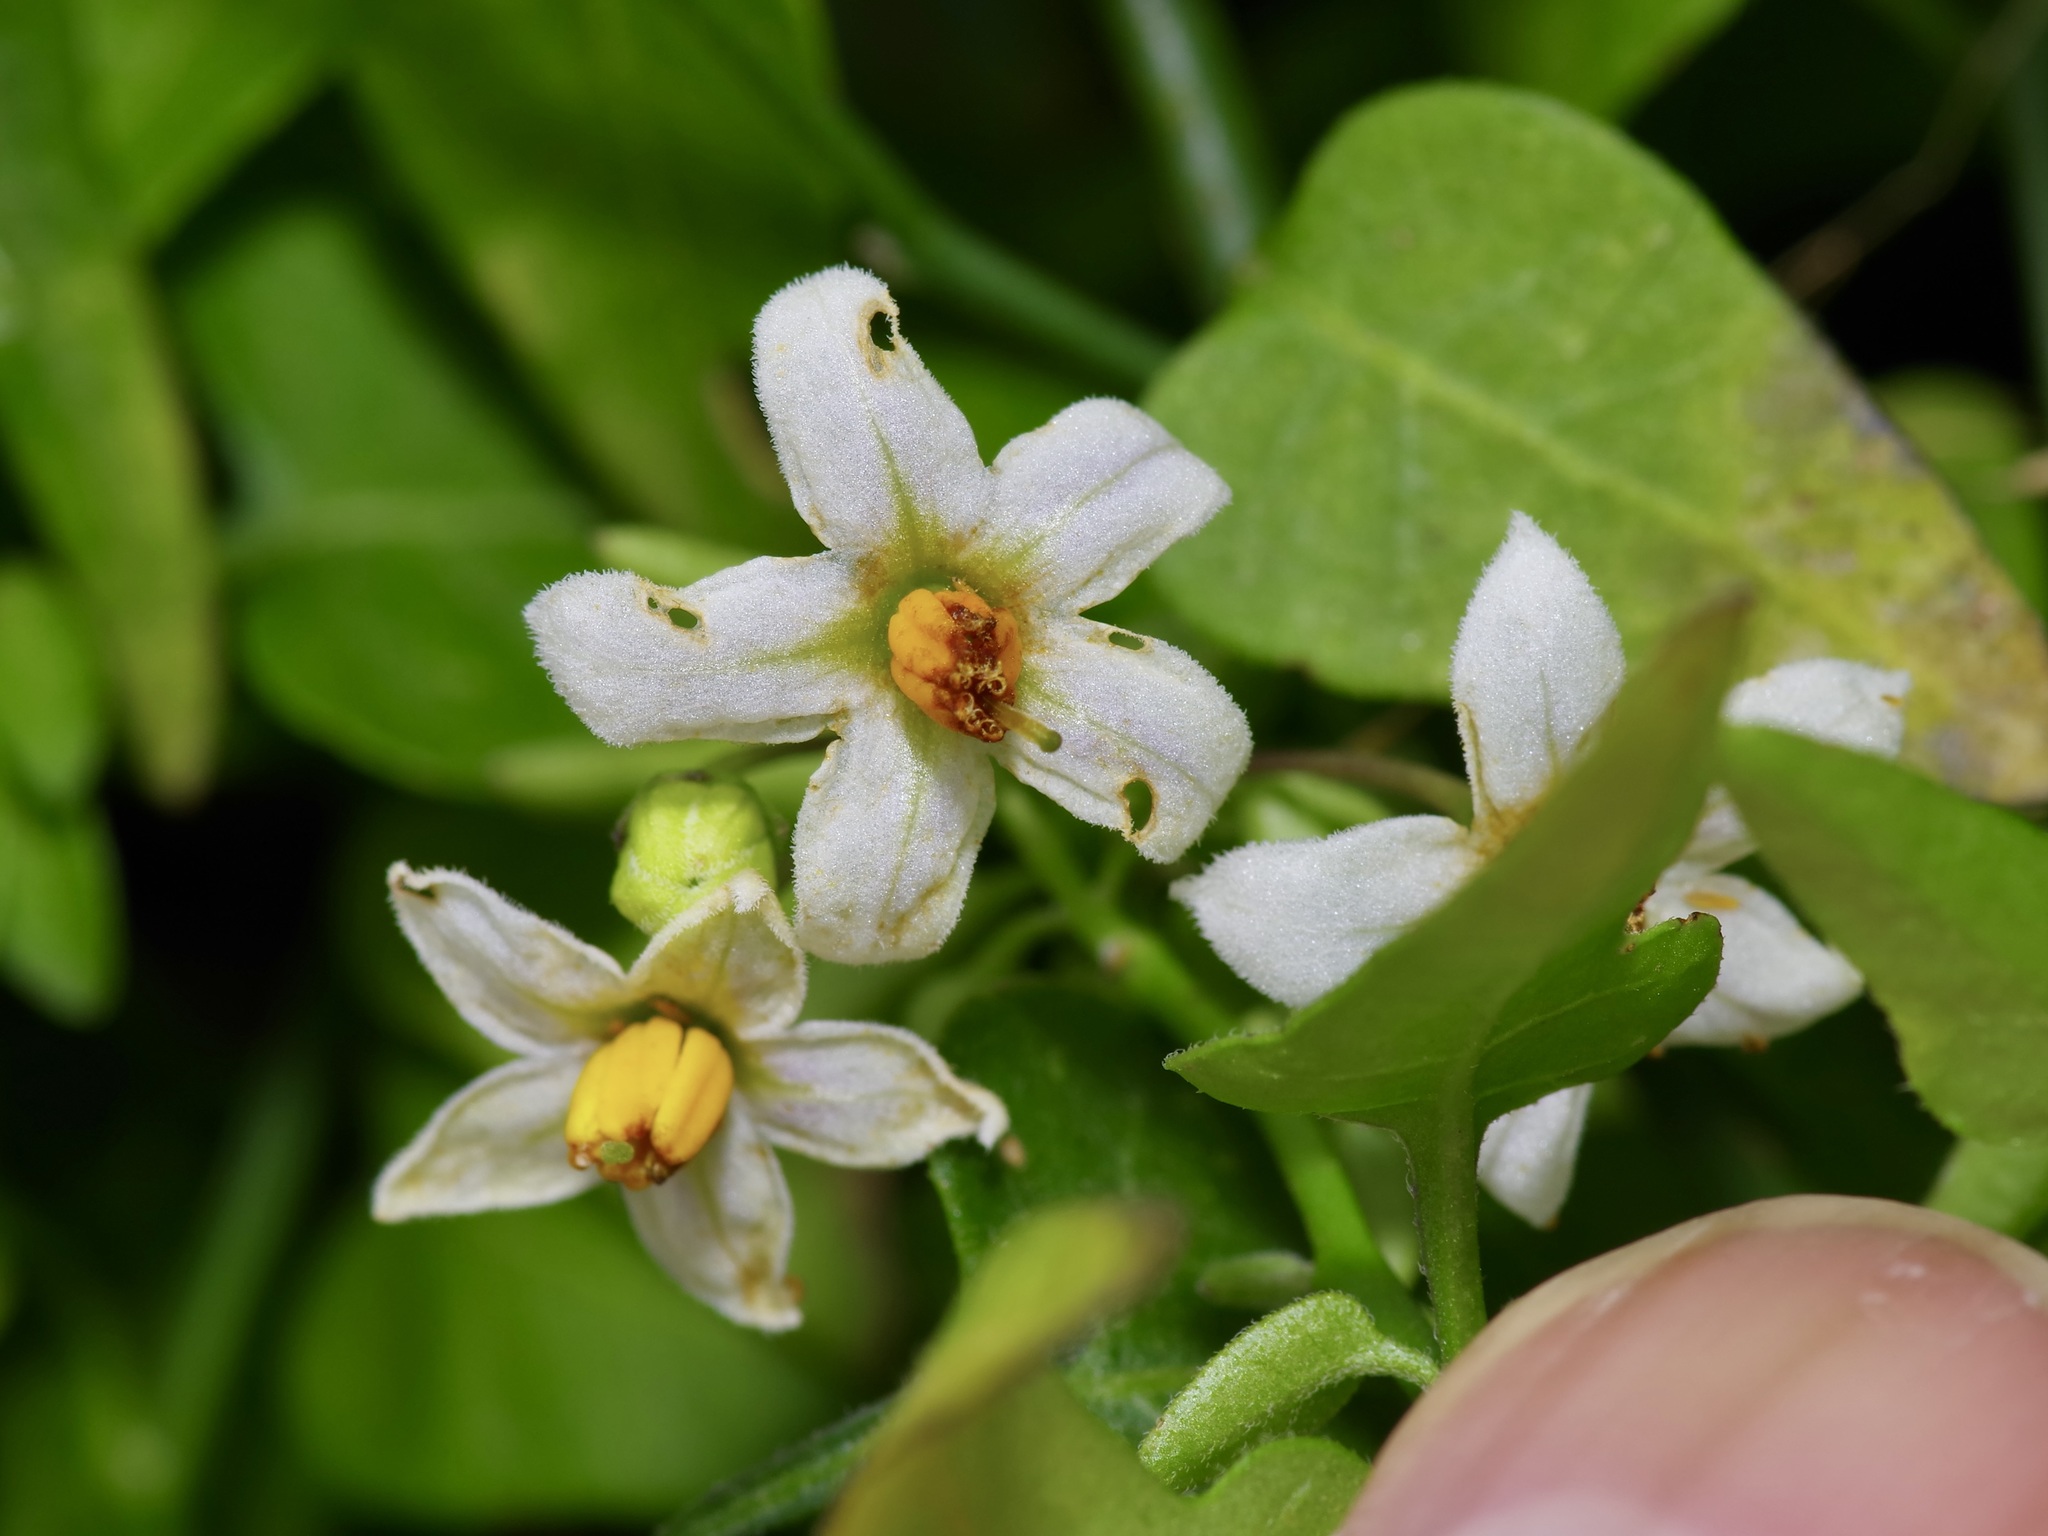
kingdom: Plantae
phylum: Tracheophyta
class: Magnoliopsida
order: Solanales
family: Solanaceae
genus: Solanum
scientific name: Solanum triquetrum
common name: Texas nightshade
